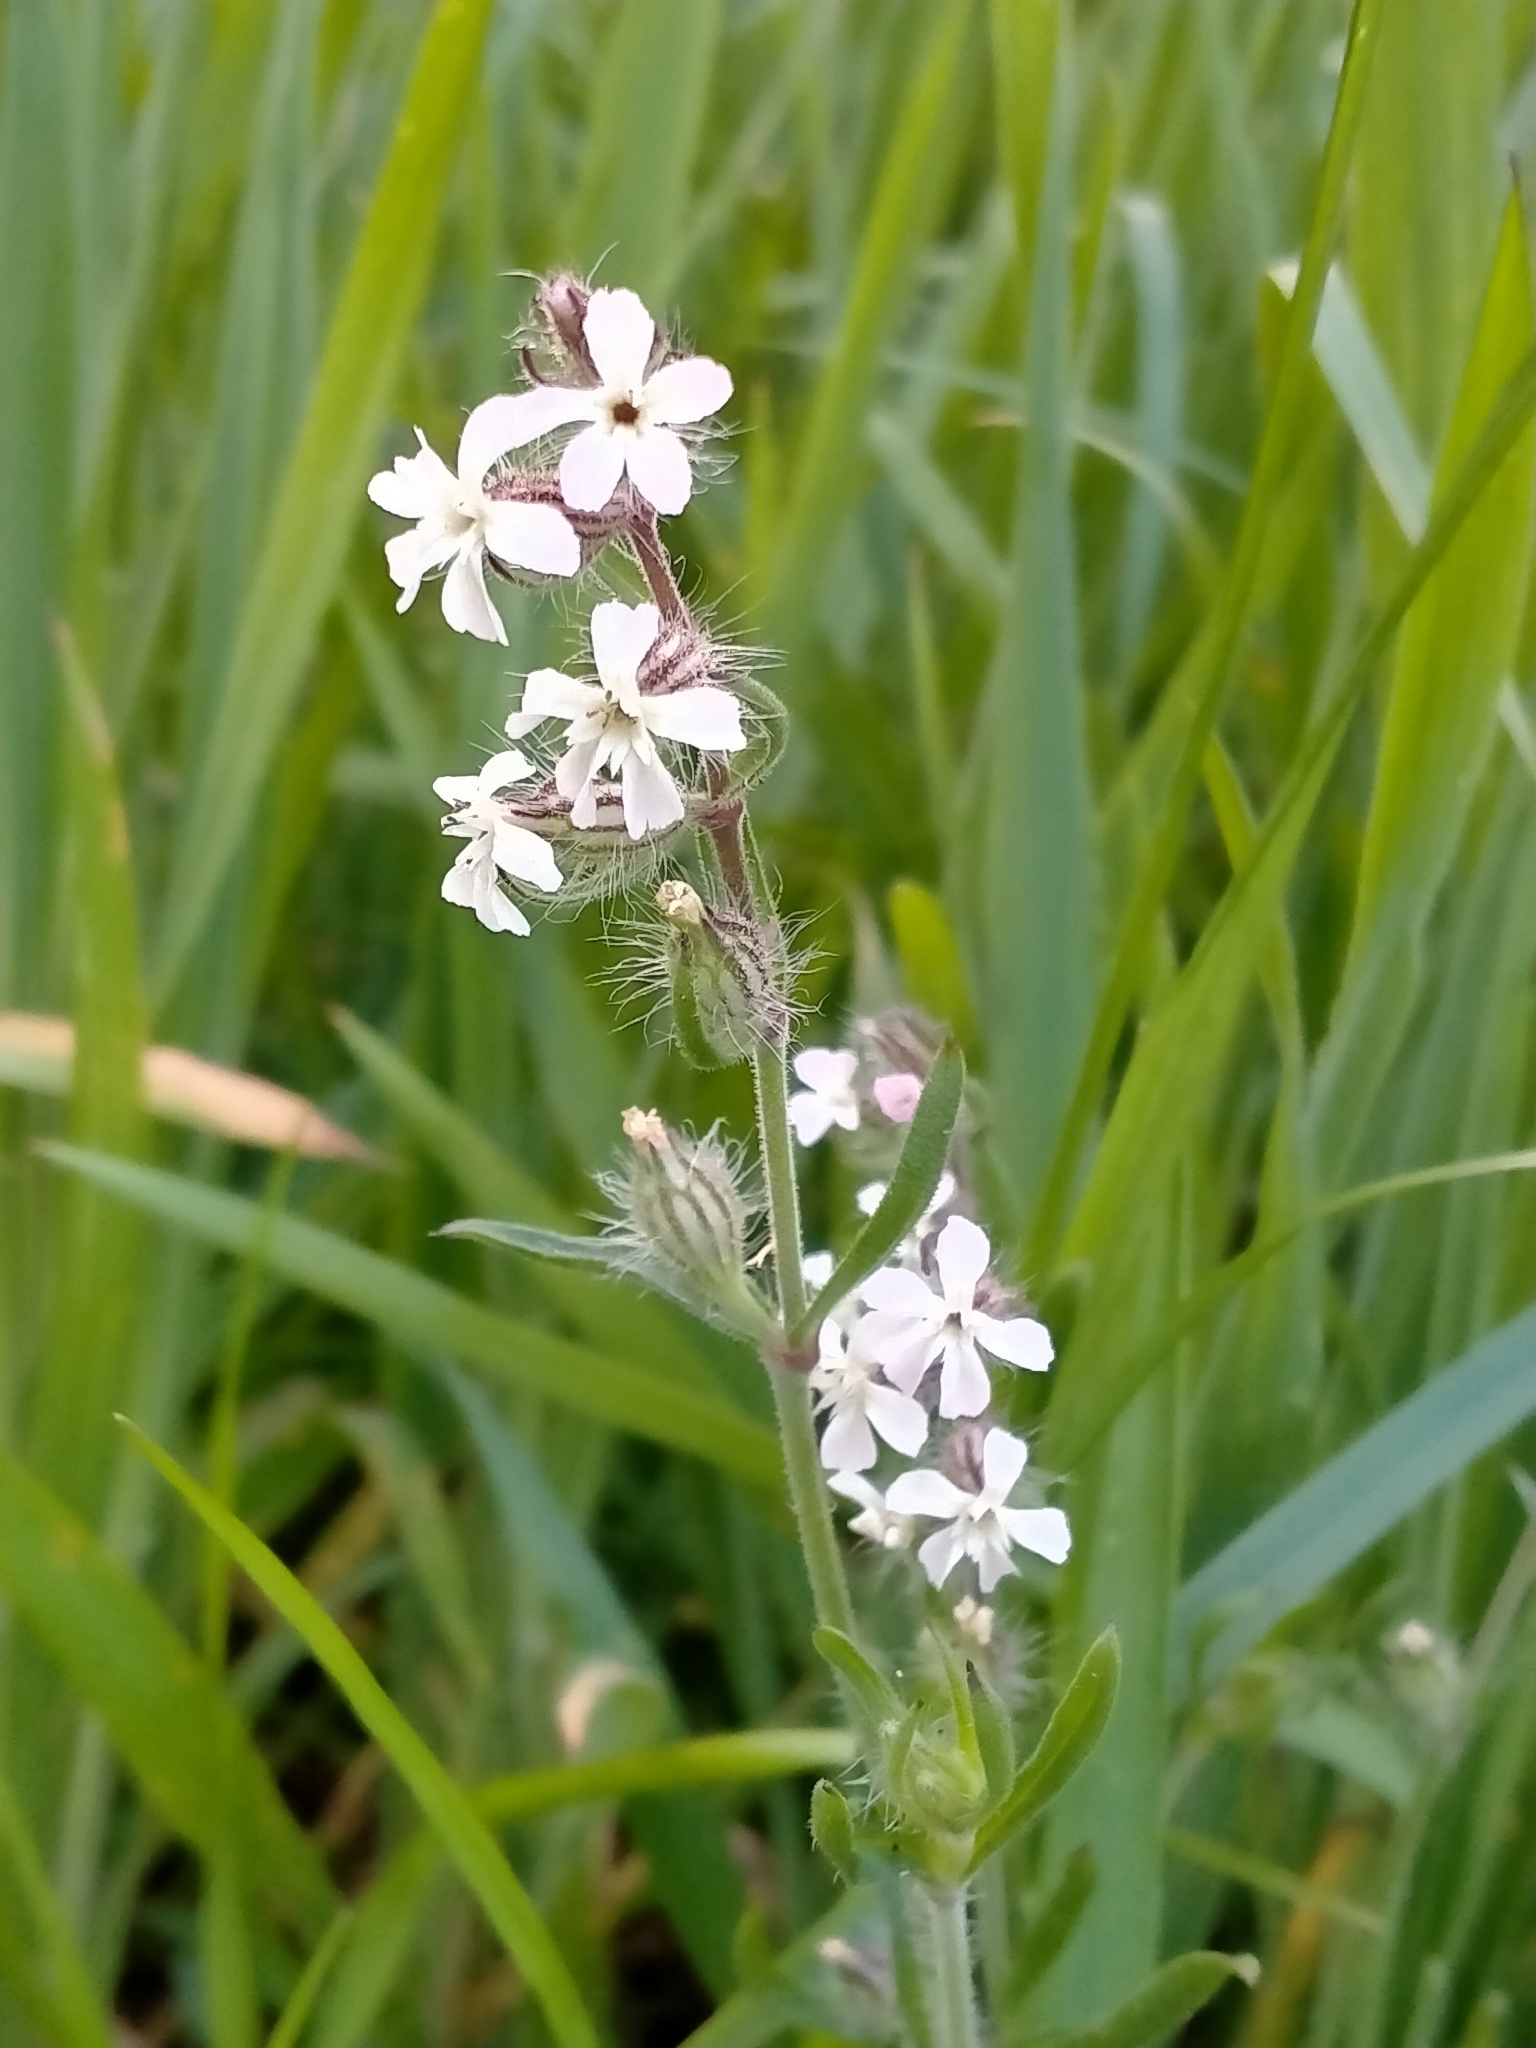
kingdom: Plantae
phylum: Tracheophyta
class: Magnoliopsida
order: Caryophyllales
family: Caryophyllaceae
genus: Silene
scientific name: Silene gallica
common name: Small-flowered catchfly
